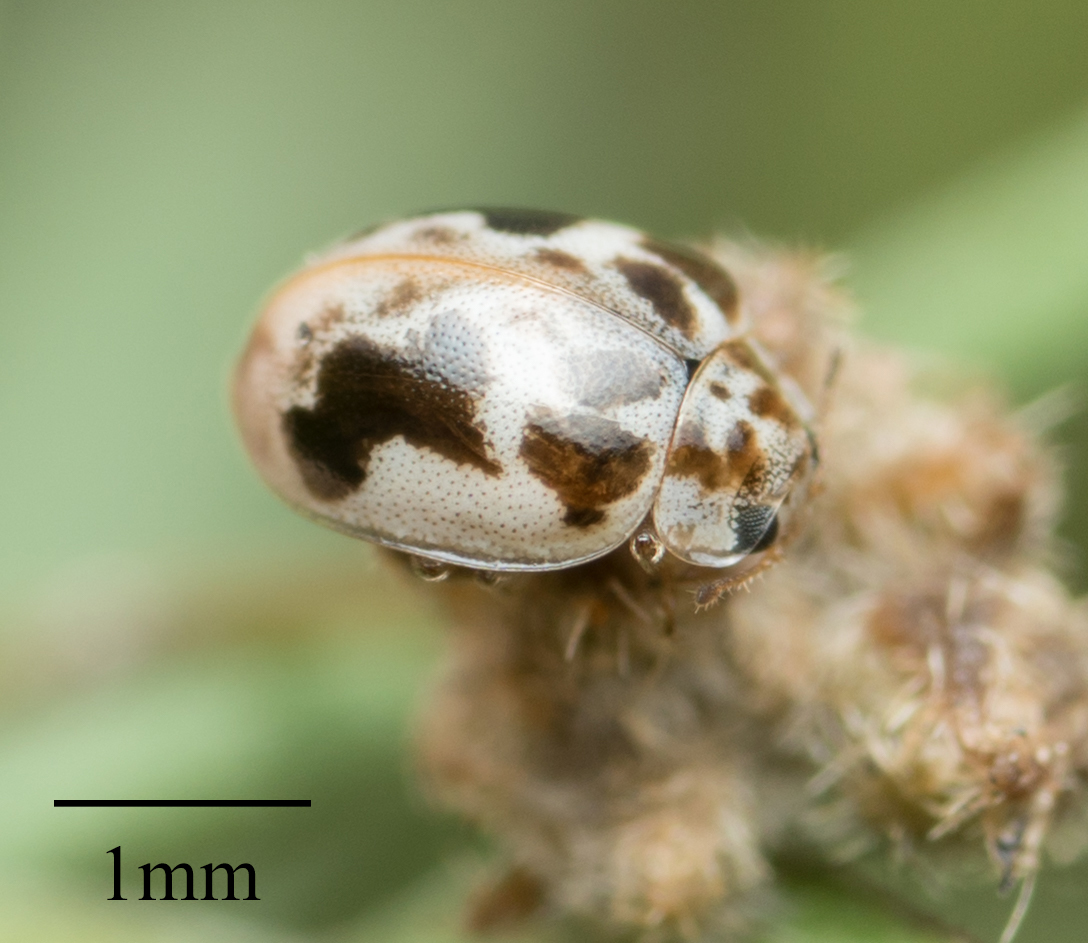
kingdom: Animalia
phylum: Arthropoda
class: Insecta
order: Coleoptera
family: Coccinellidae
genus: Psyllobora
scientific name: Psyllobora renifer
